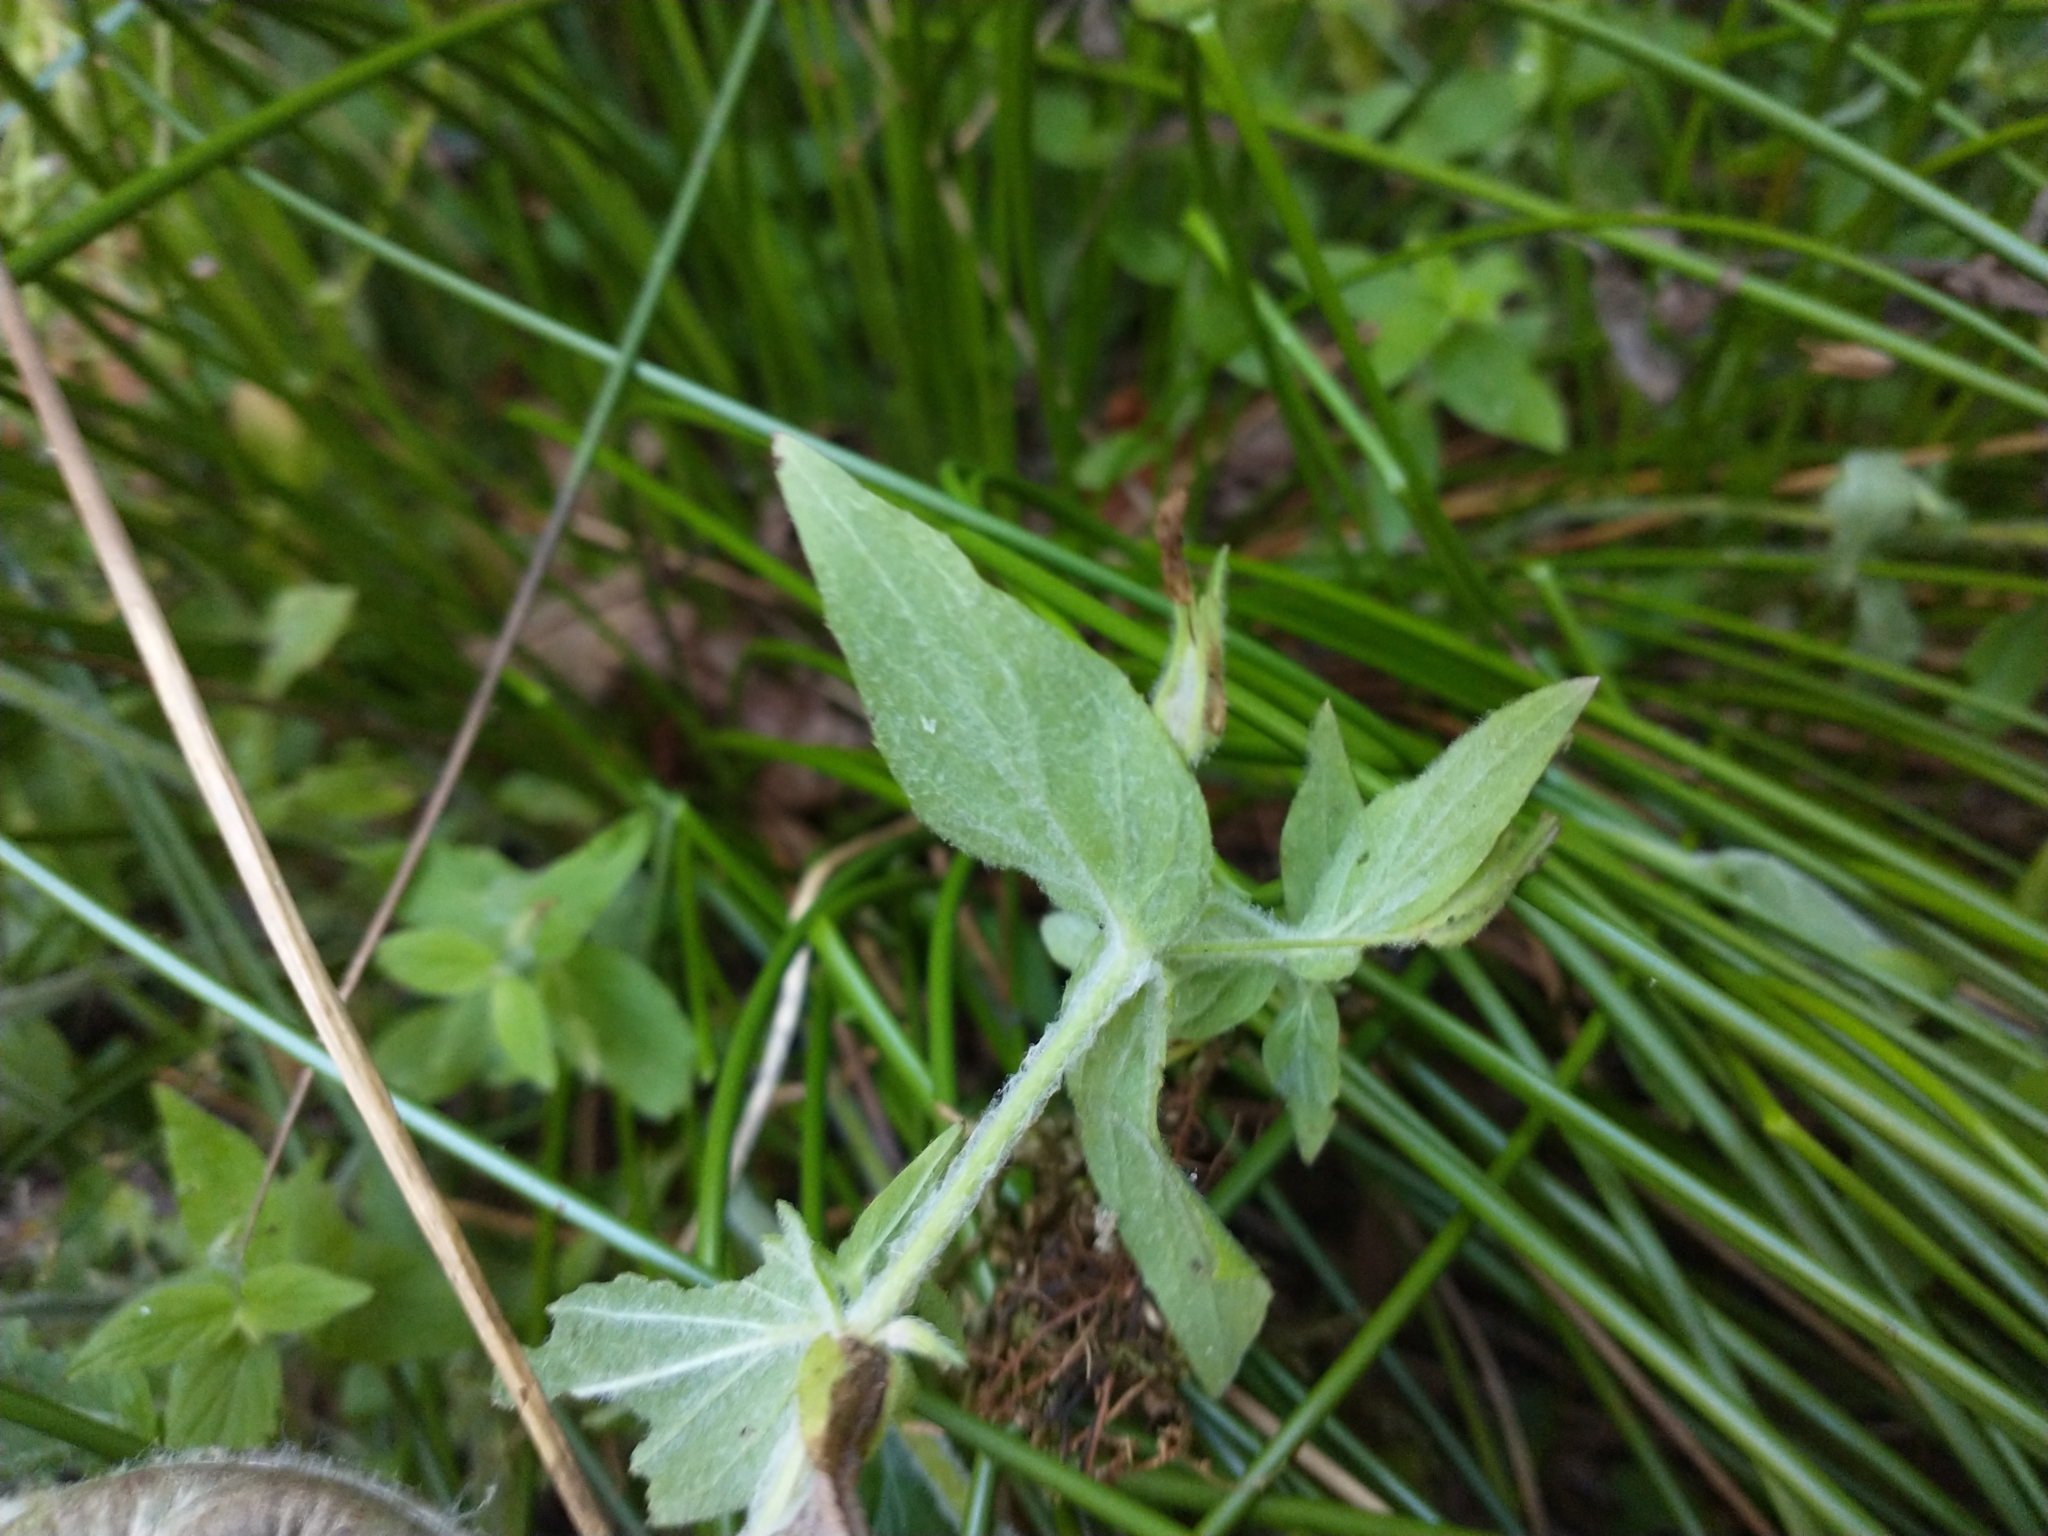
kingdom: Plantae
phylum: Tracheophyta
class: Magnoliopsida
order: Lamiales
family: Phrymaceae
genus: Erythranthe
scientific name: Erythranthe ptilota
